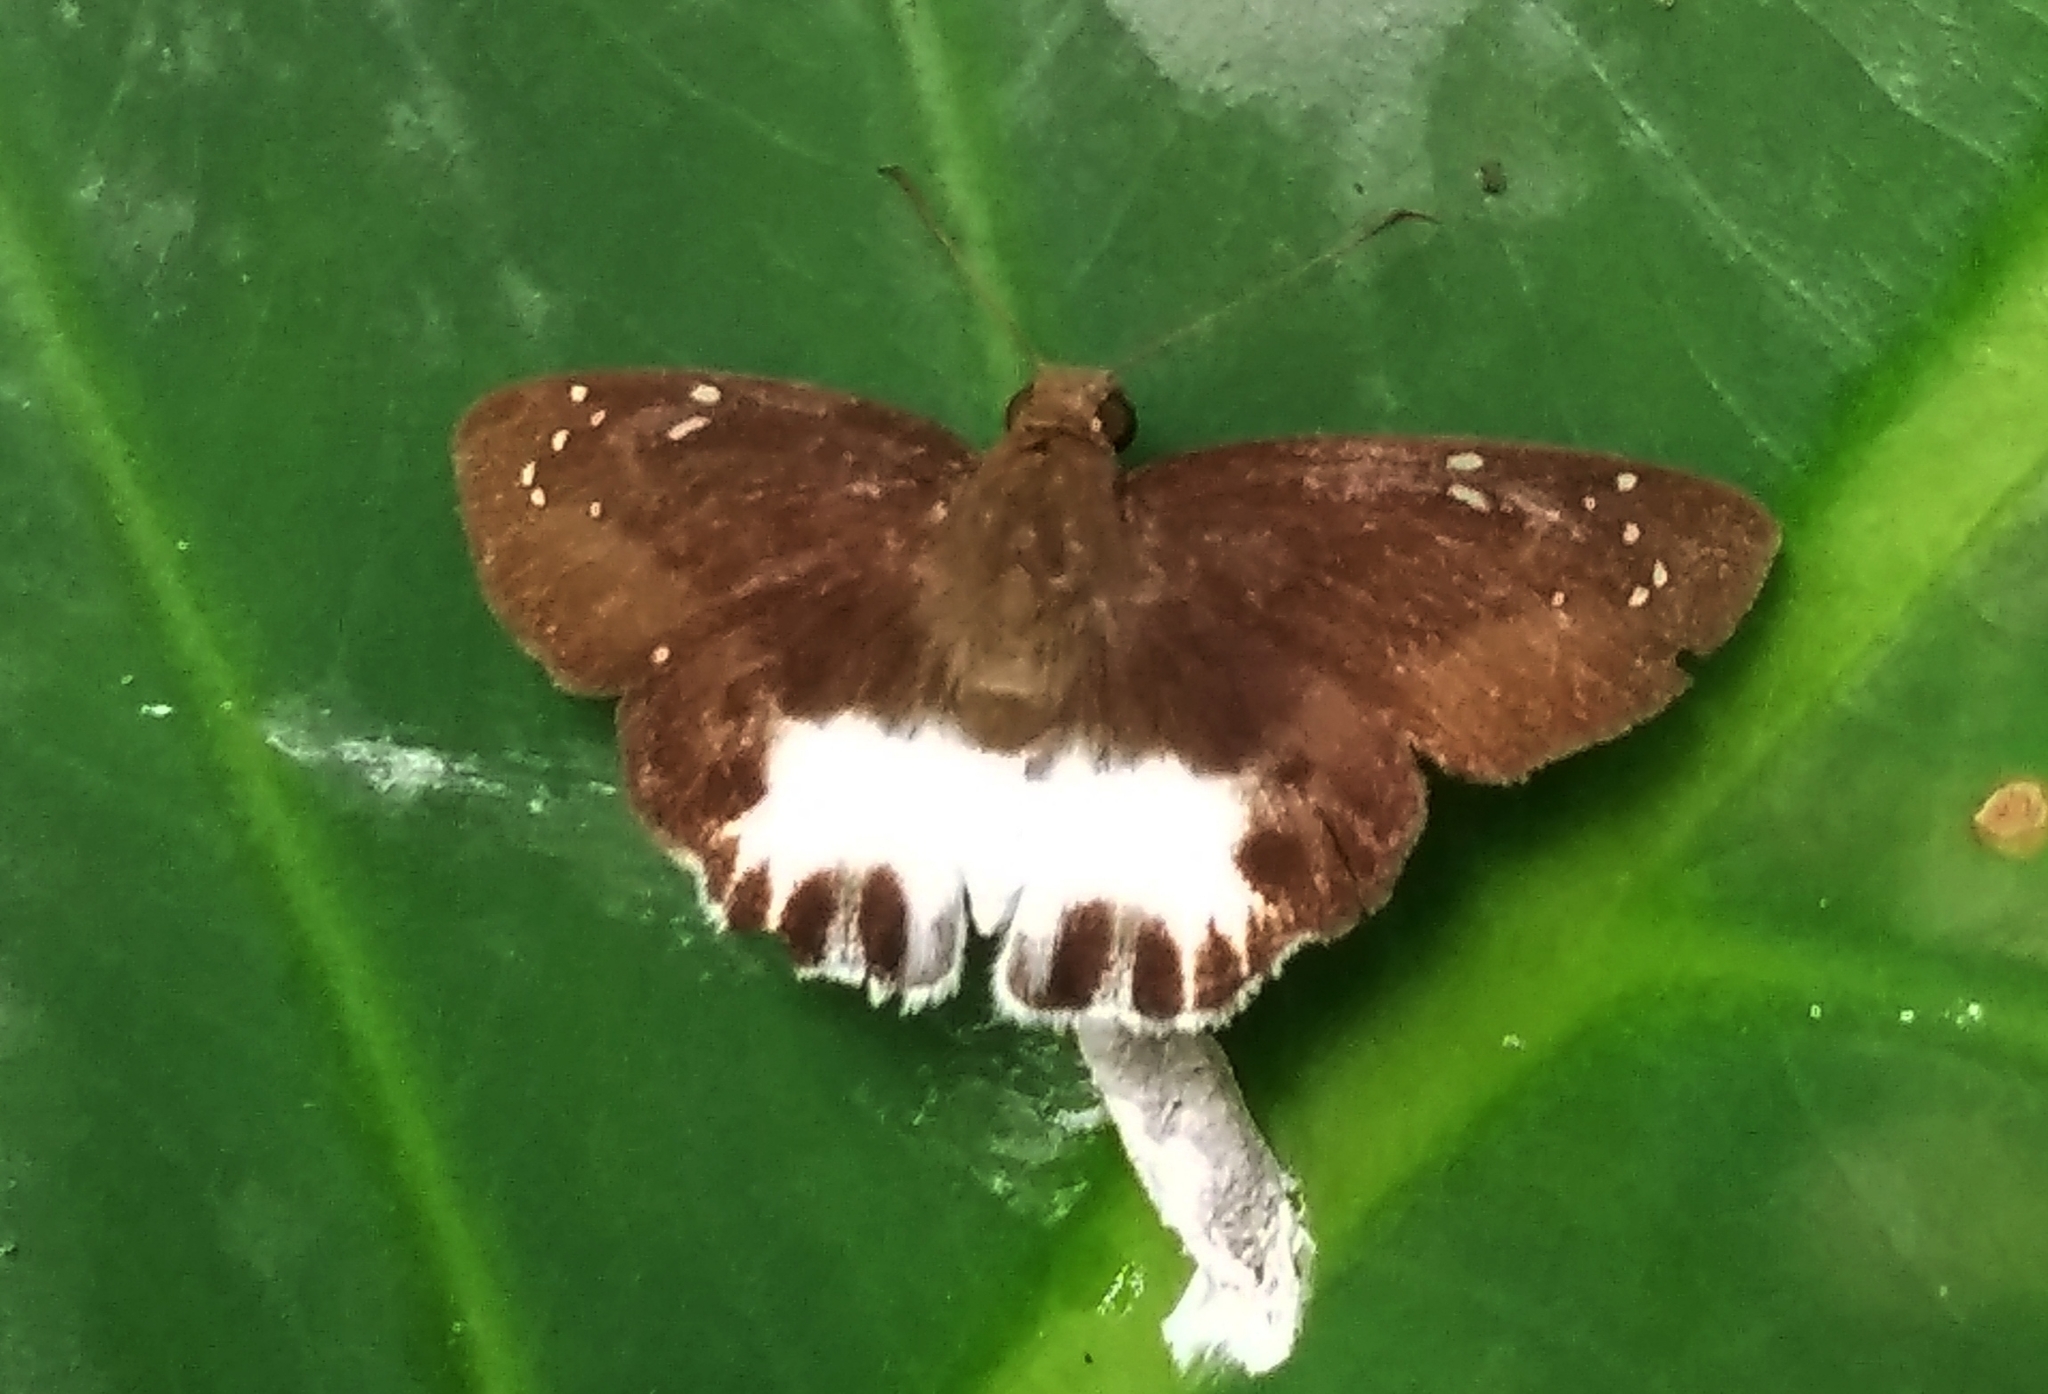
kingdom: Animalia
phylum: Arthropoda
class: Insecta
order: Lepidoptera
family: Hesperiidae
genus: Tagiades
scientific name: Tagiades litigiosa
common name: Water snow flat
